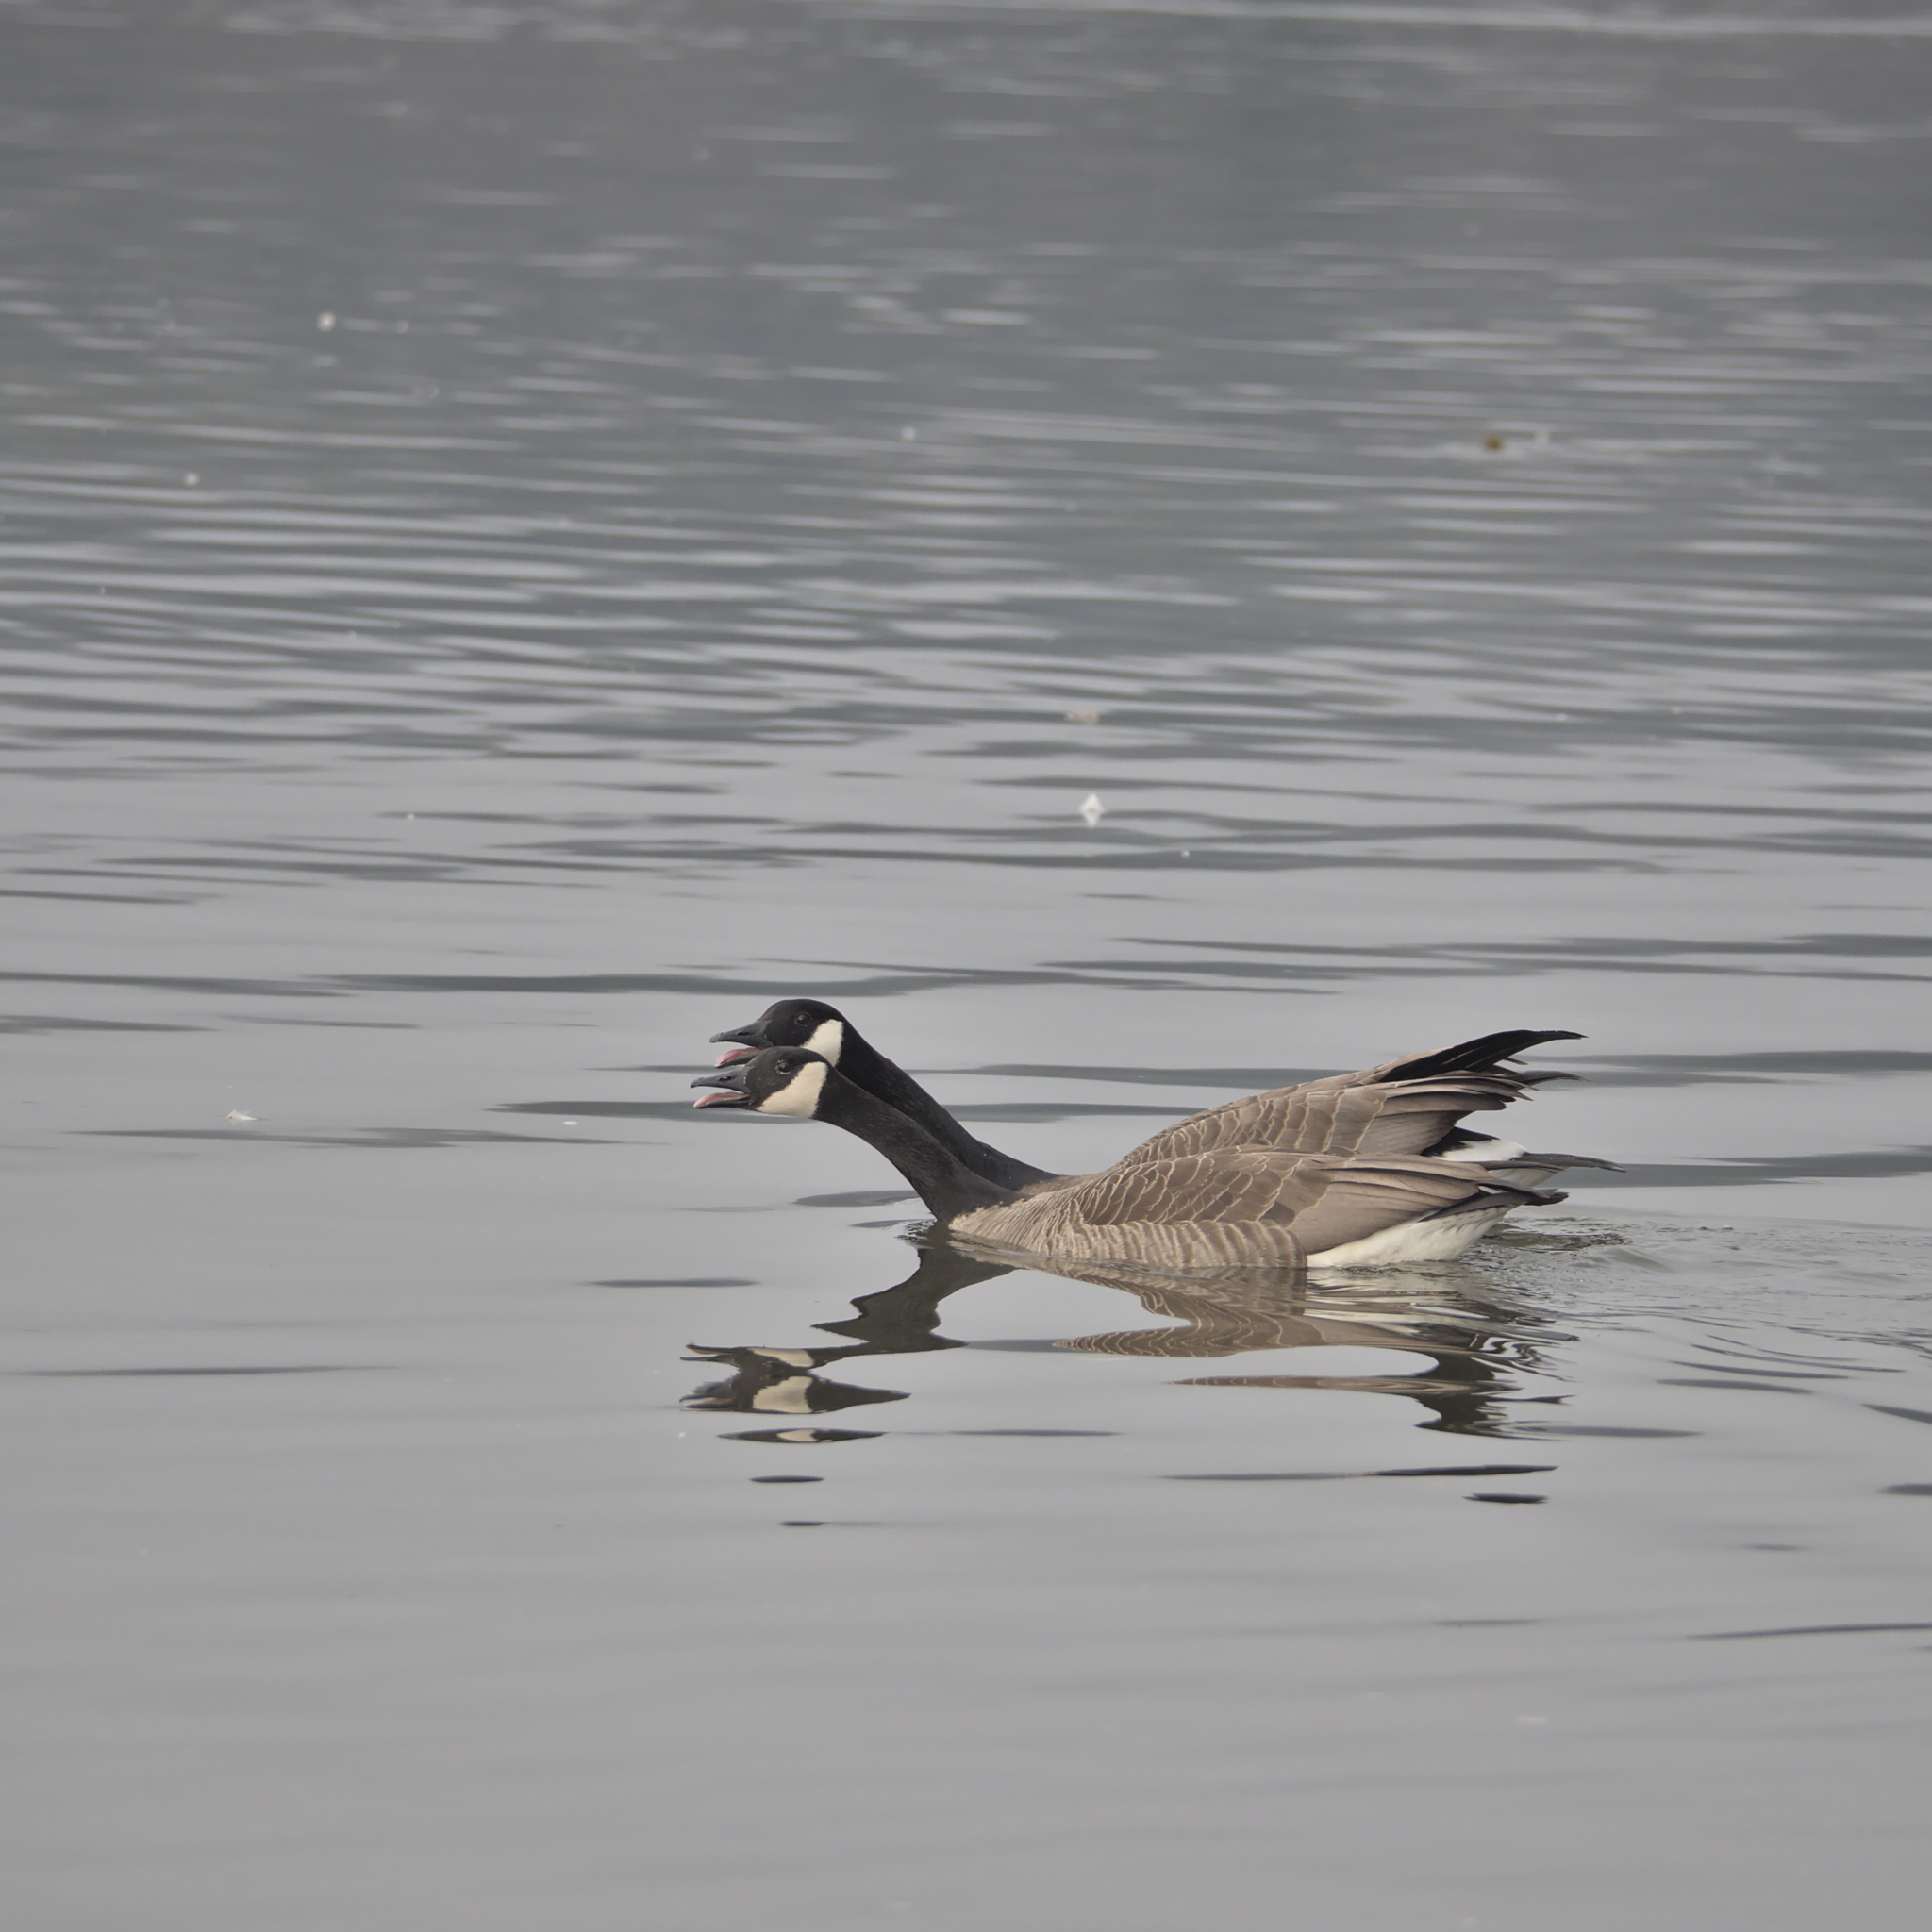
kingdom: Animalia
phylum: Chordata
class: Aves
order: Anseriformes
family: Anatidae
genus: Branta
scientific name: Branta canadensis
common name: Canada goose
